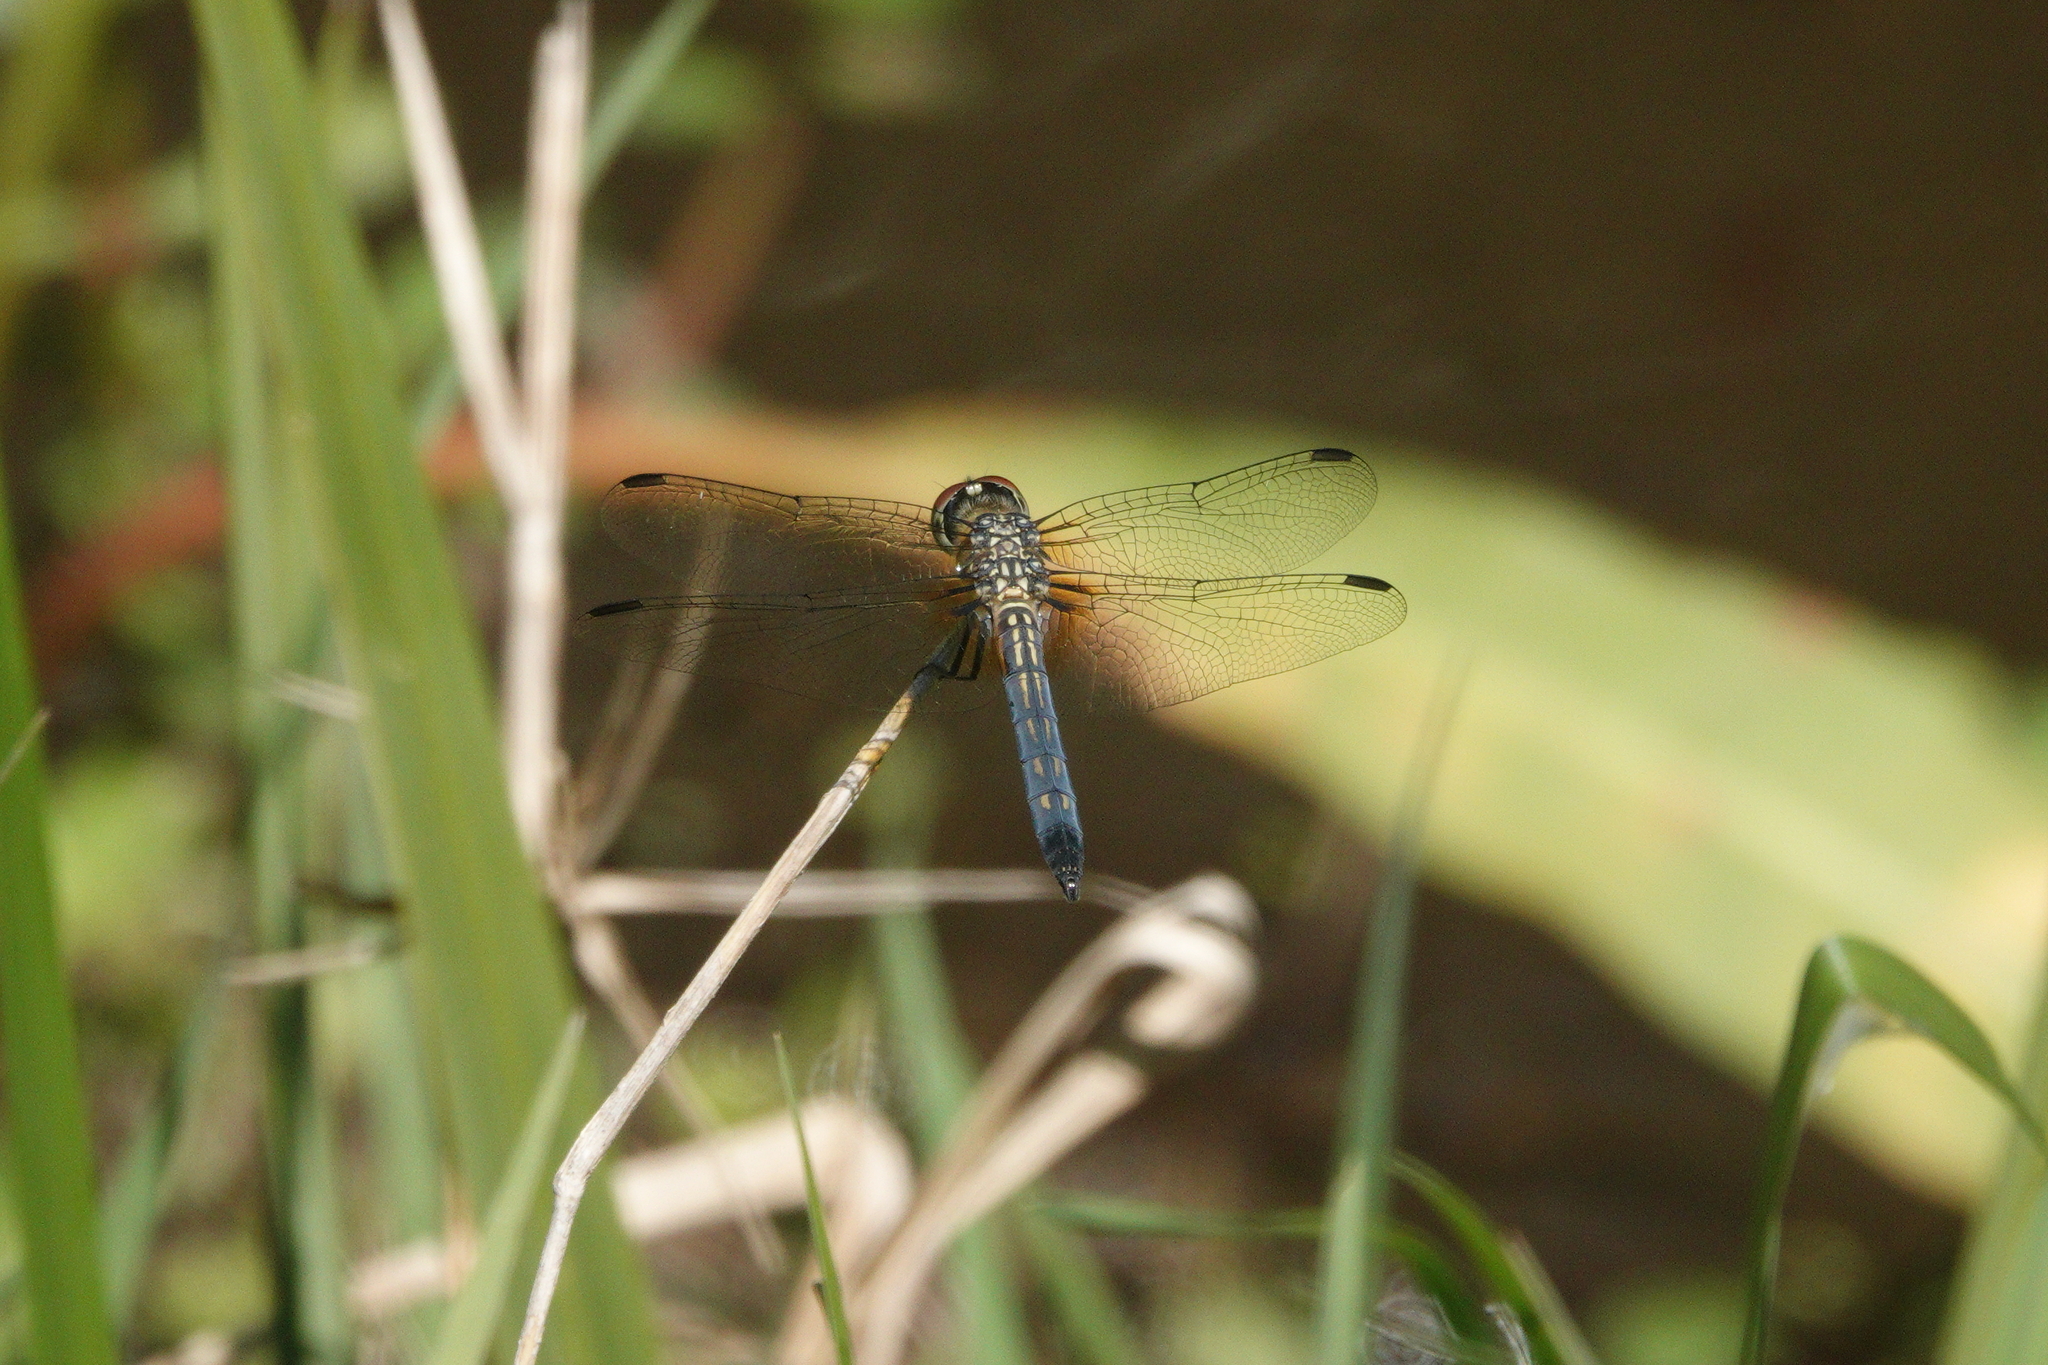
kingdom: Animalia
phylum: Arthropoda
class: Insecta
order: Odonata
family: Libellulidae
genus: Pachydiplax
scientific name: Pachydiplax longipennis
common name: Blue dasher
